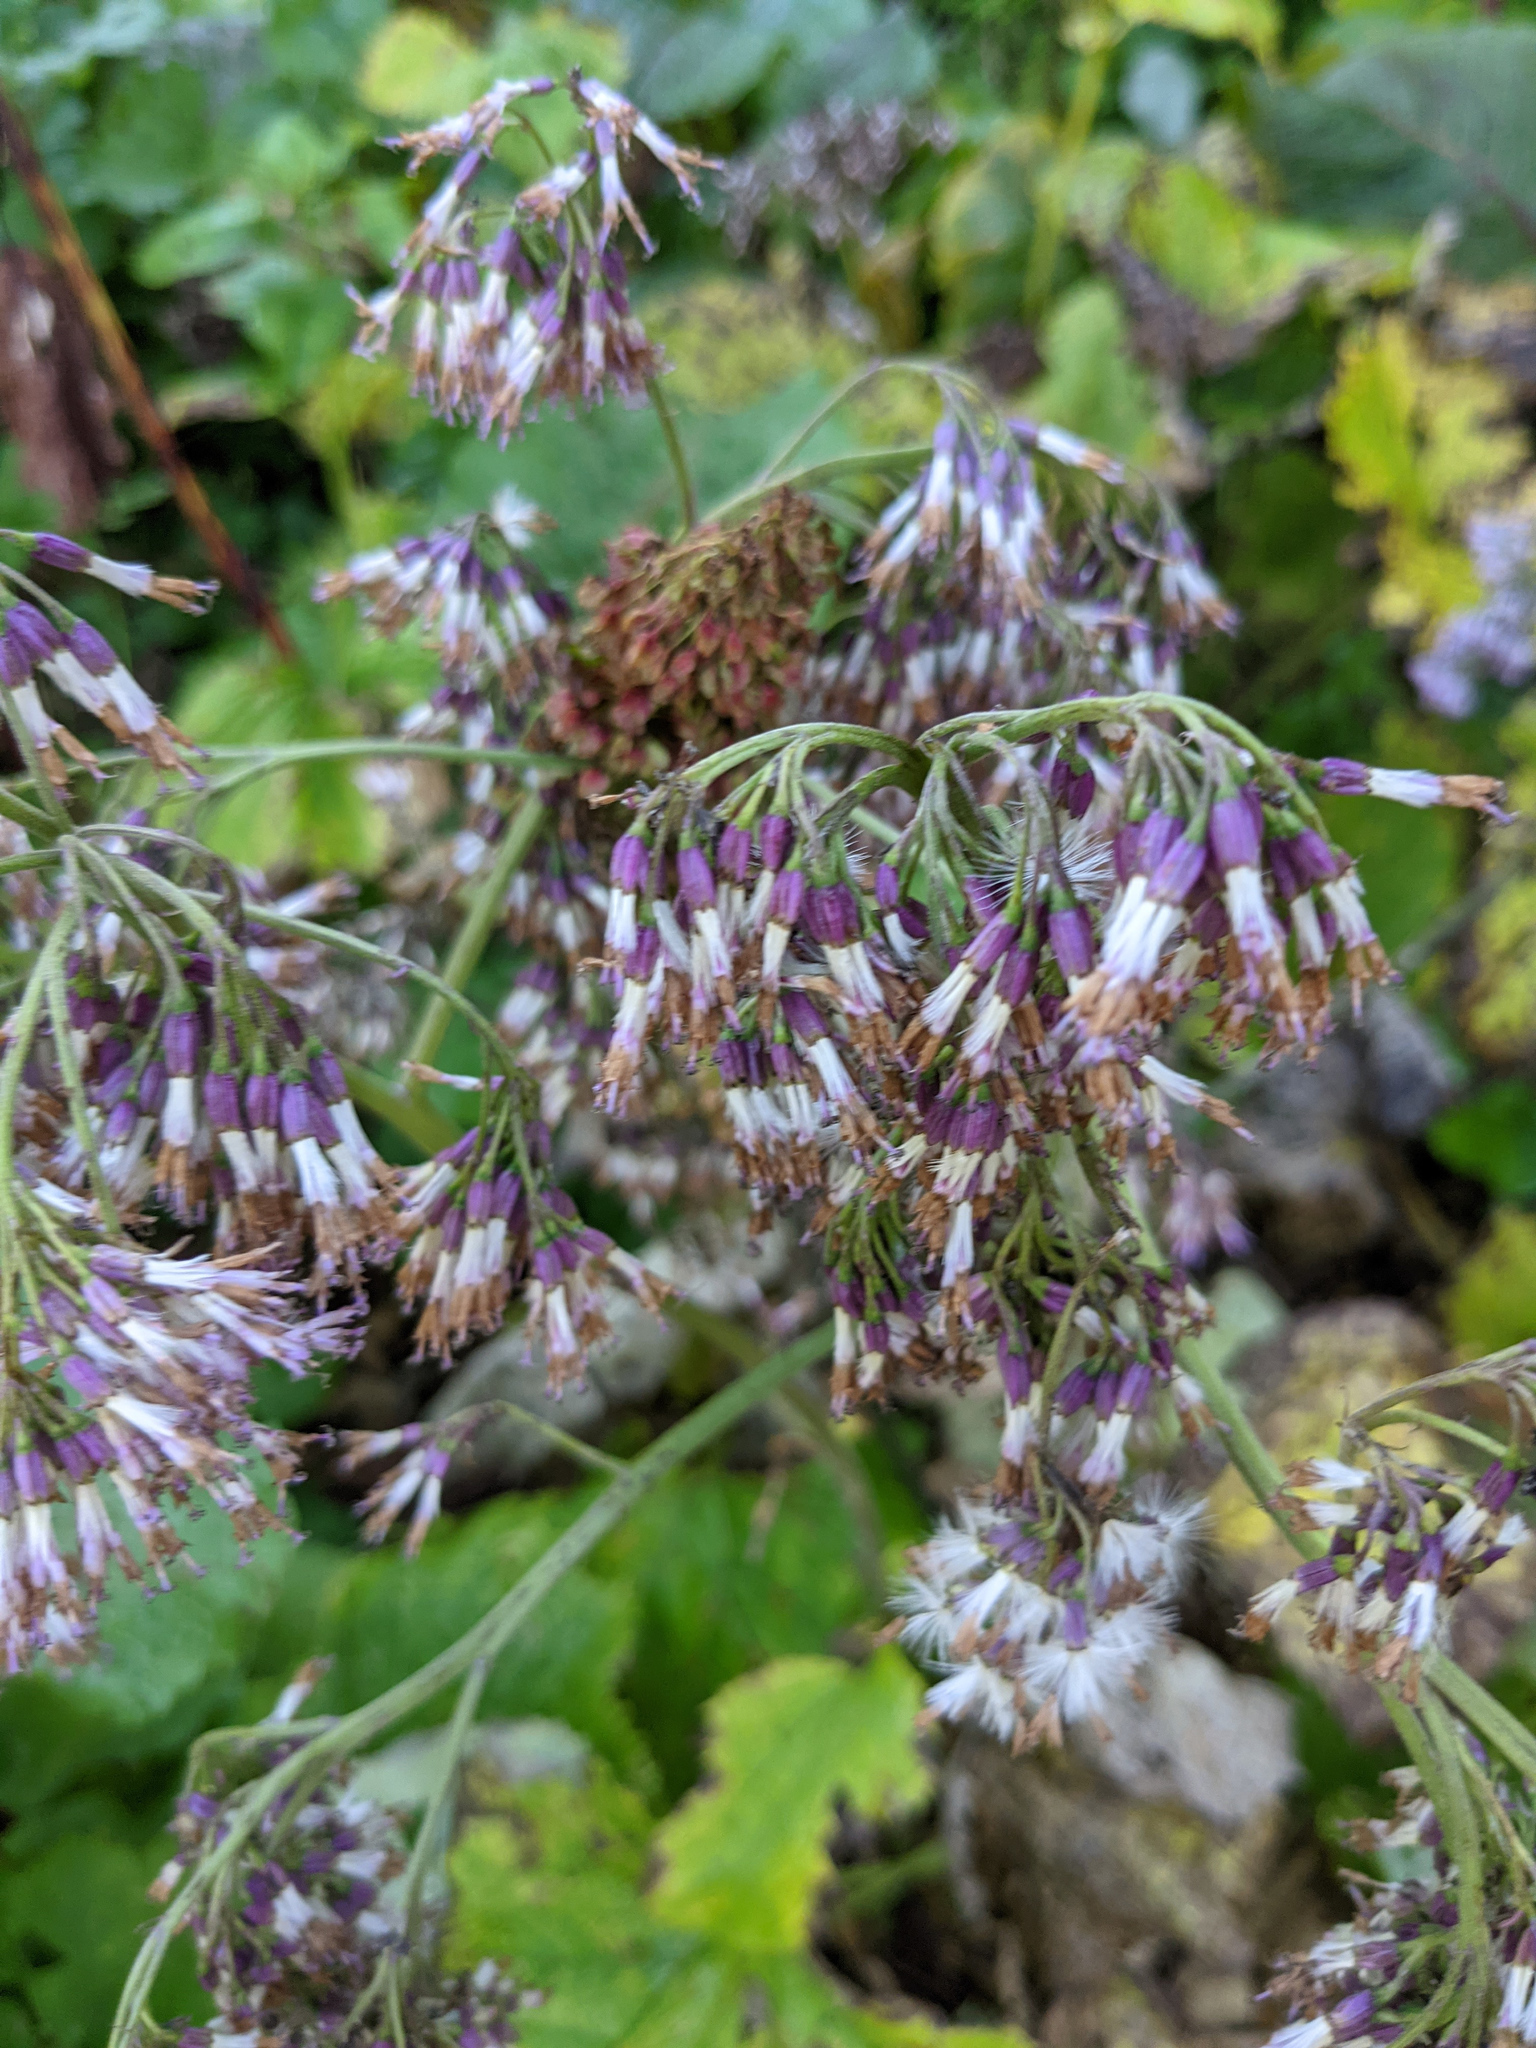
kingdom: Plantae
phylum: Tracheophyta
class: Magnoliopsida
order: Asterales
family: Asteraceae
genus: Adenostyles
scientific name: Adenostyles alliariae
